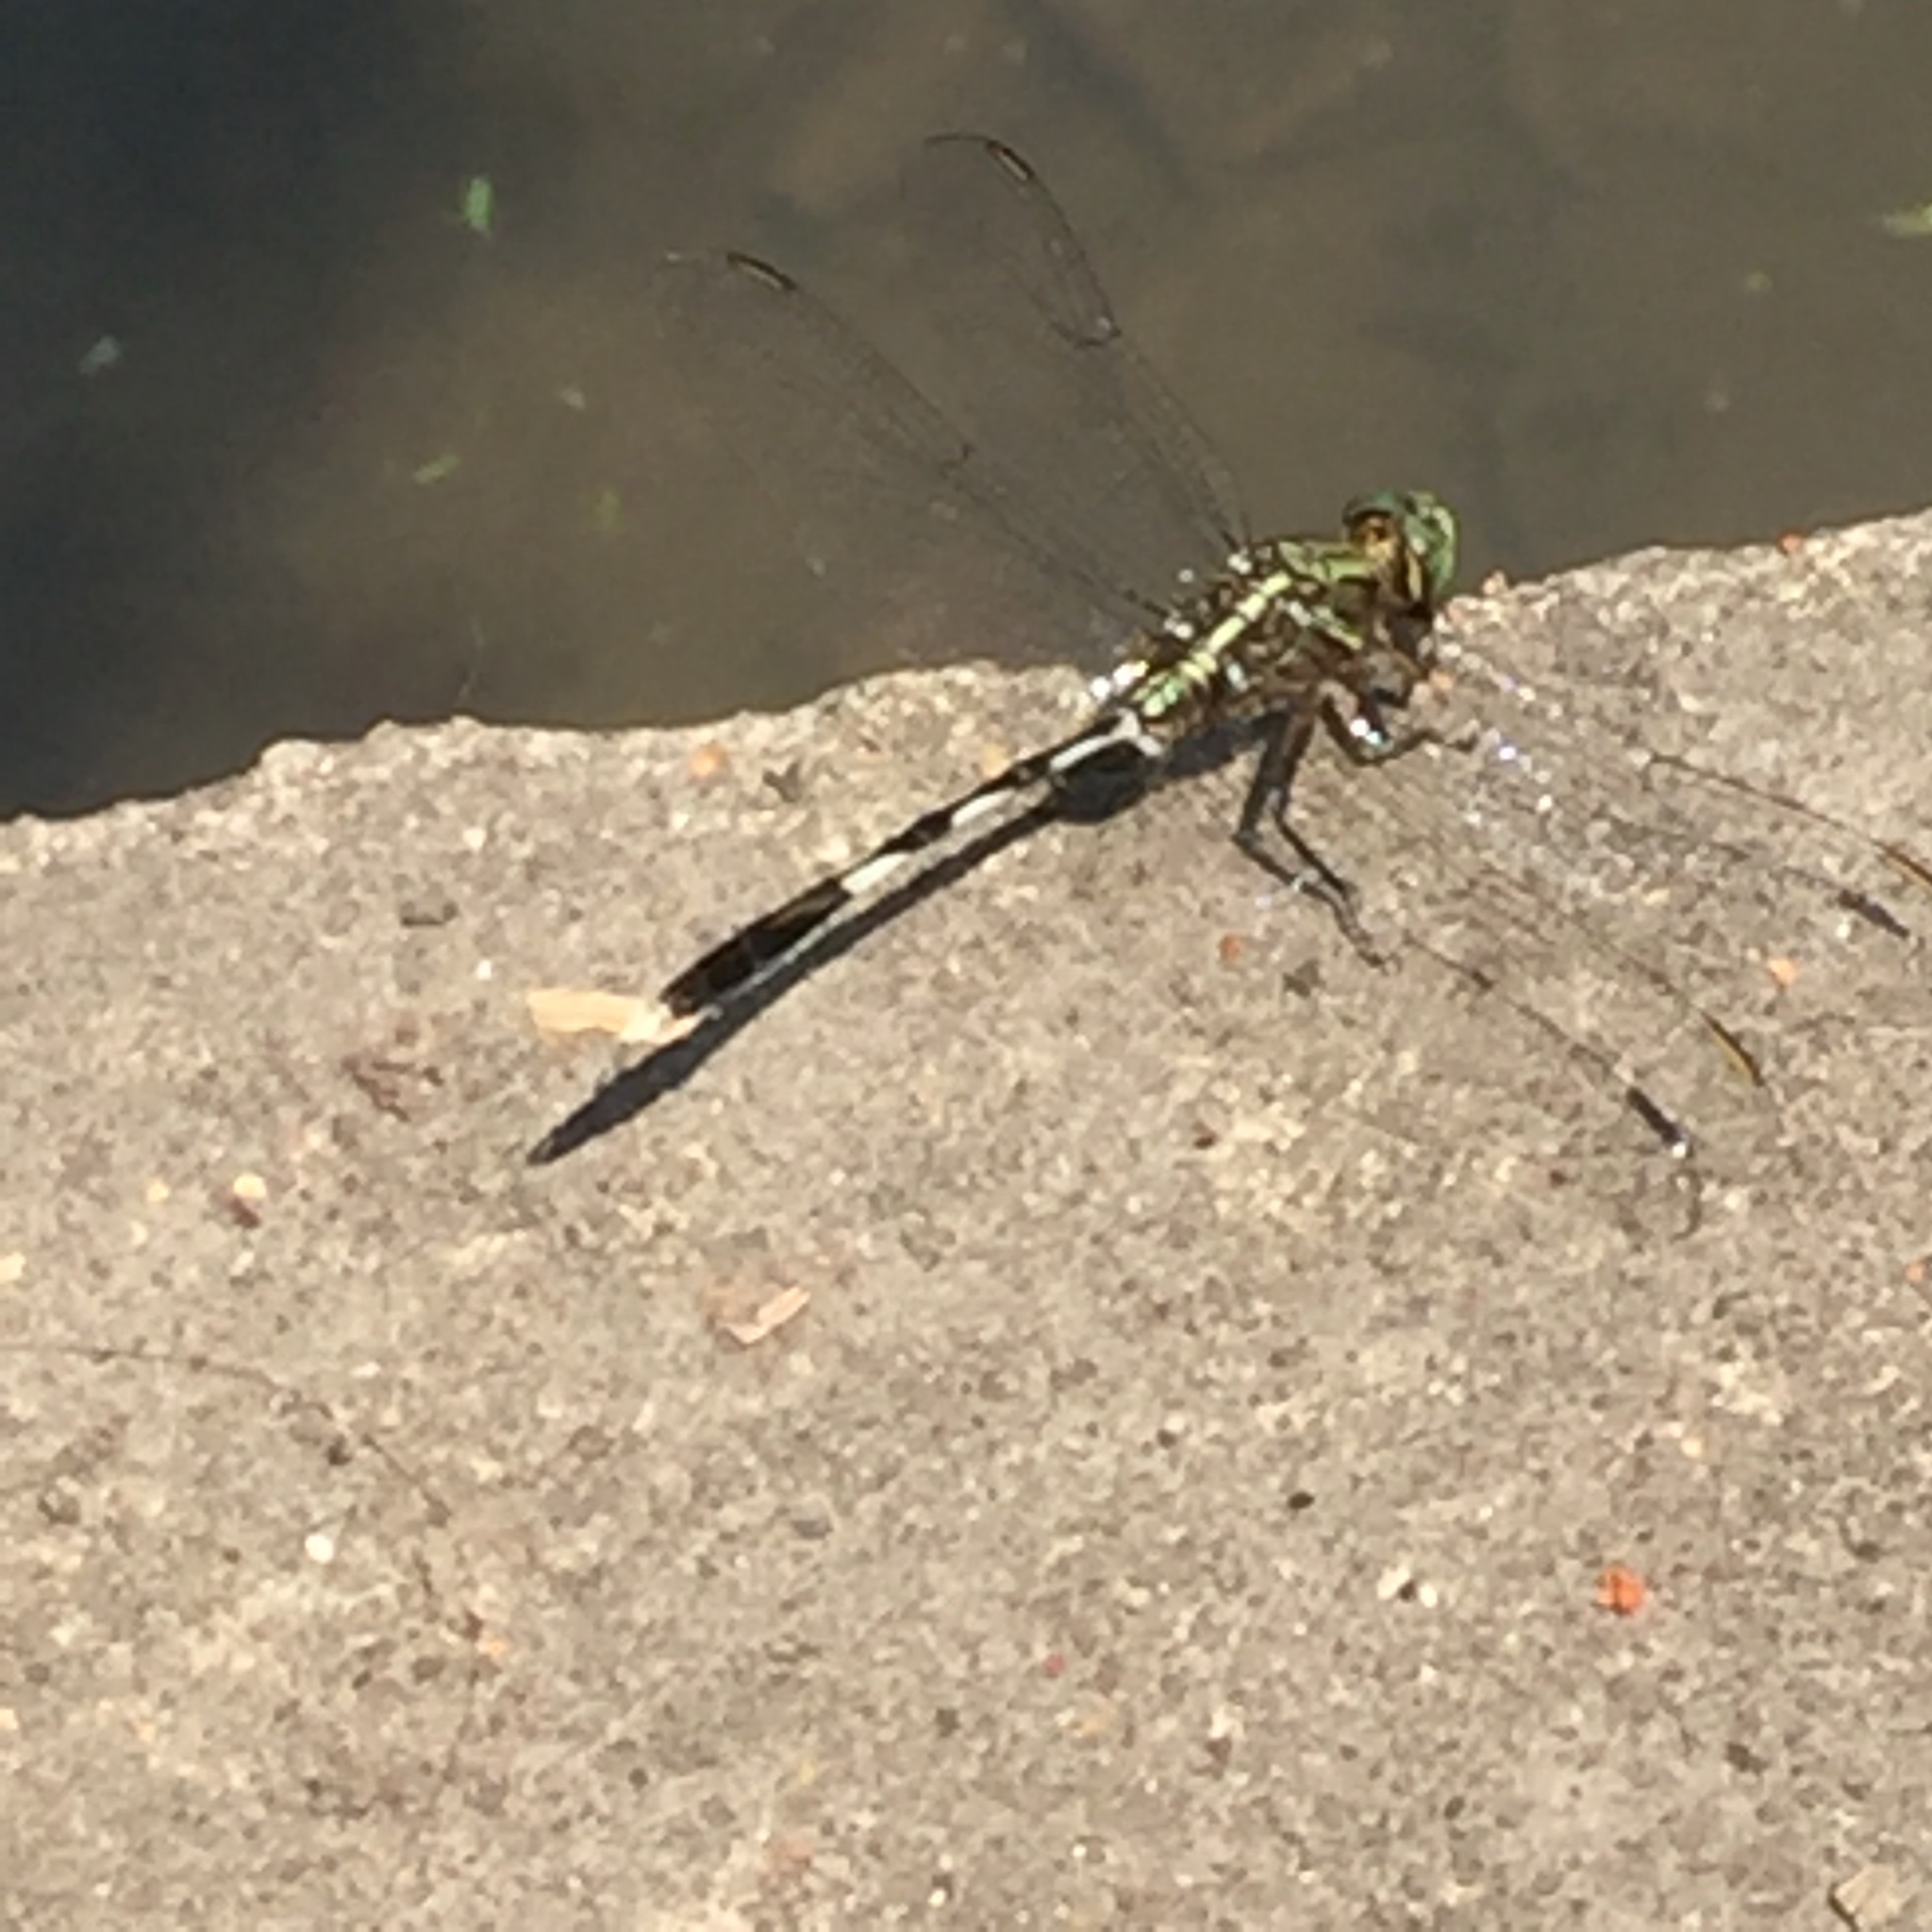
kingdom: Animalia
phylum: Arthropoda
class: Insecta
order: Odonata
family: Libellulidae
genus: Orthetrum
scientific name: Orthetrum sabina
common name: Slender skimmer
